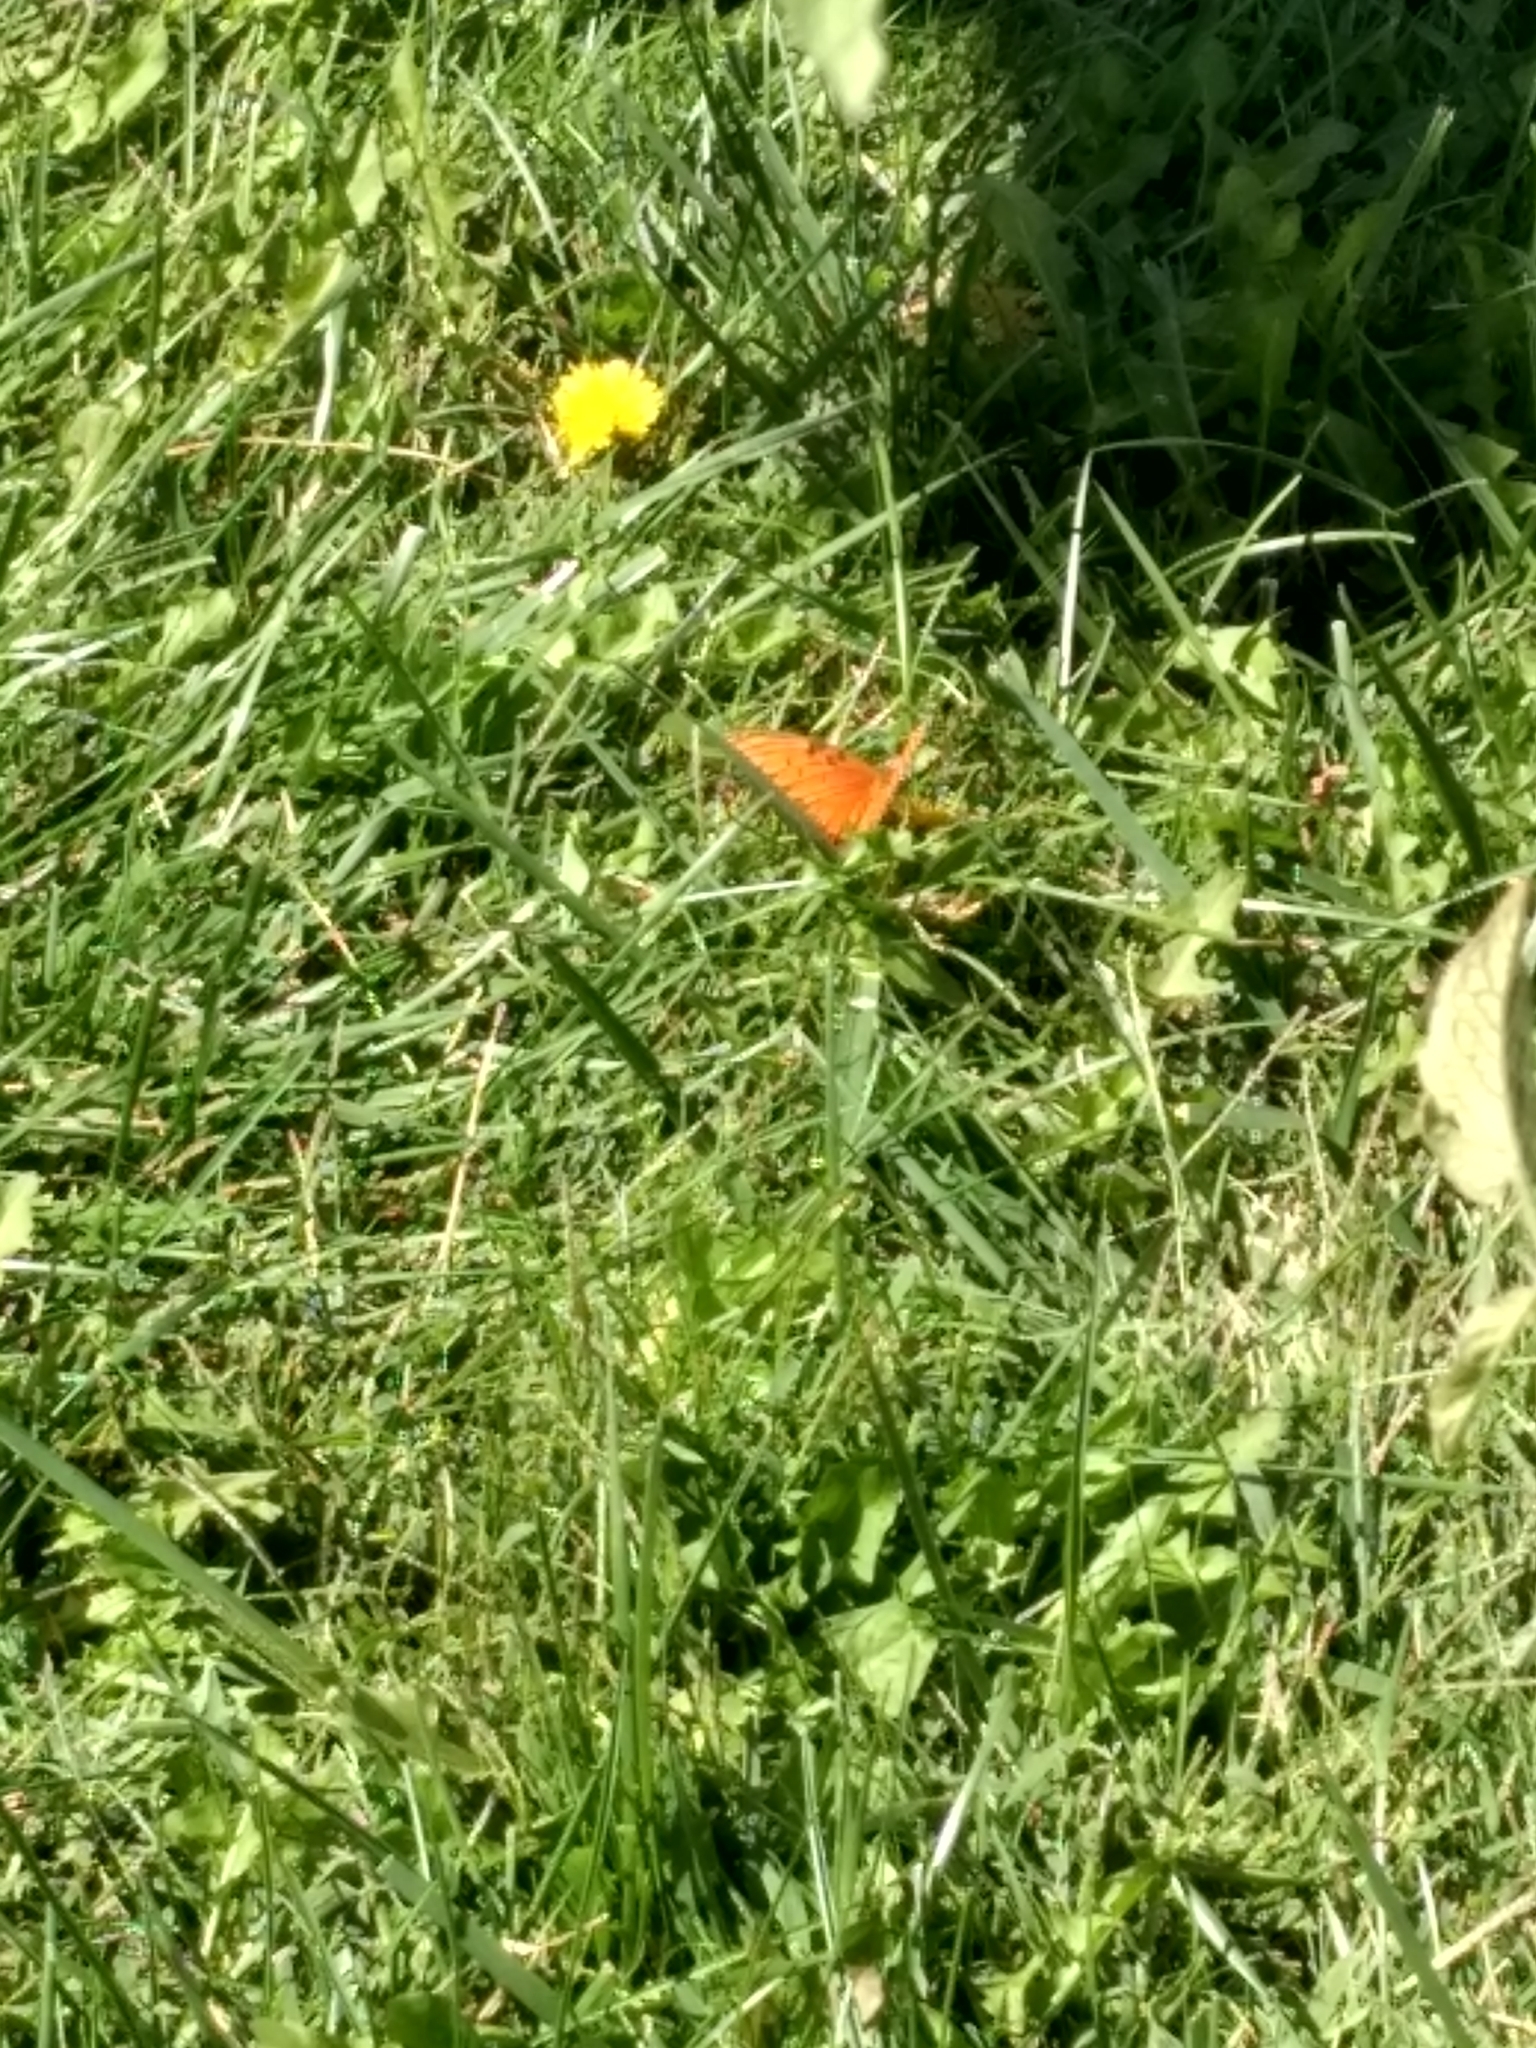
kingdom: Animalia
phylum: Arthropoda
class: Insecta
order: Lepidoptera
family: Nymphalidae
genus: Dione
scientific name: Dione vanillae
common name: Gulf fritillary
